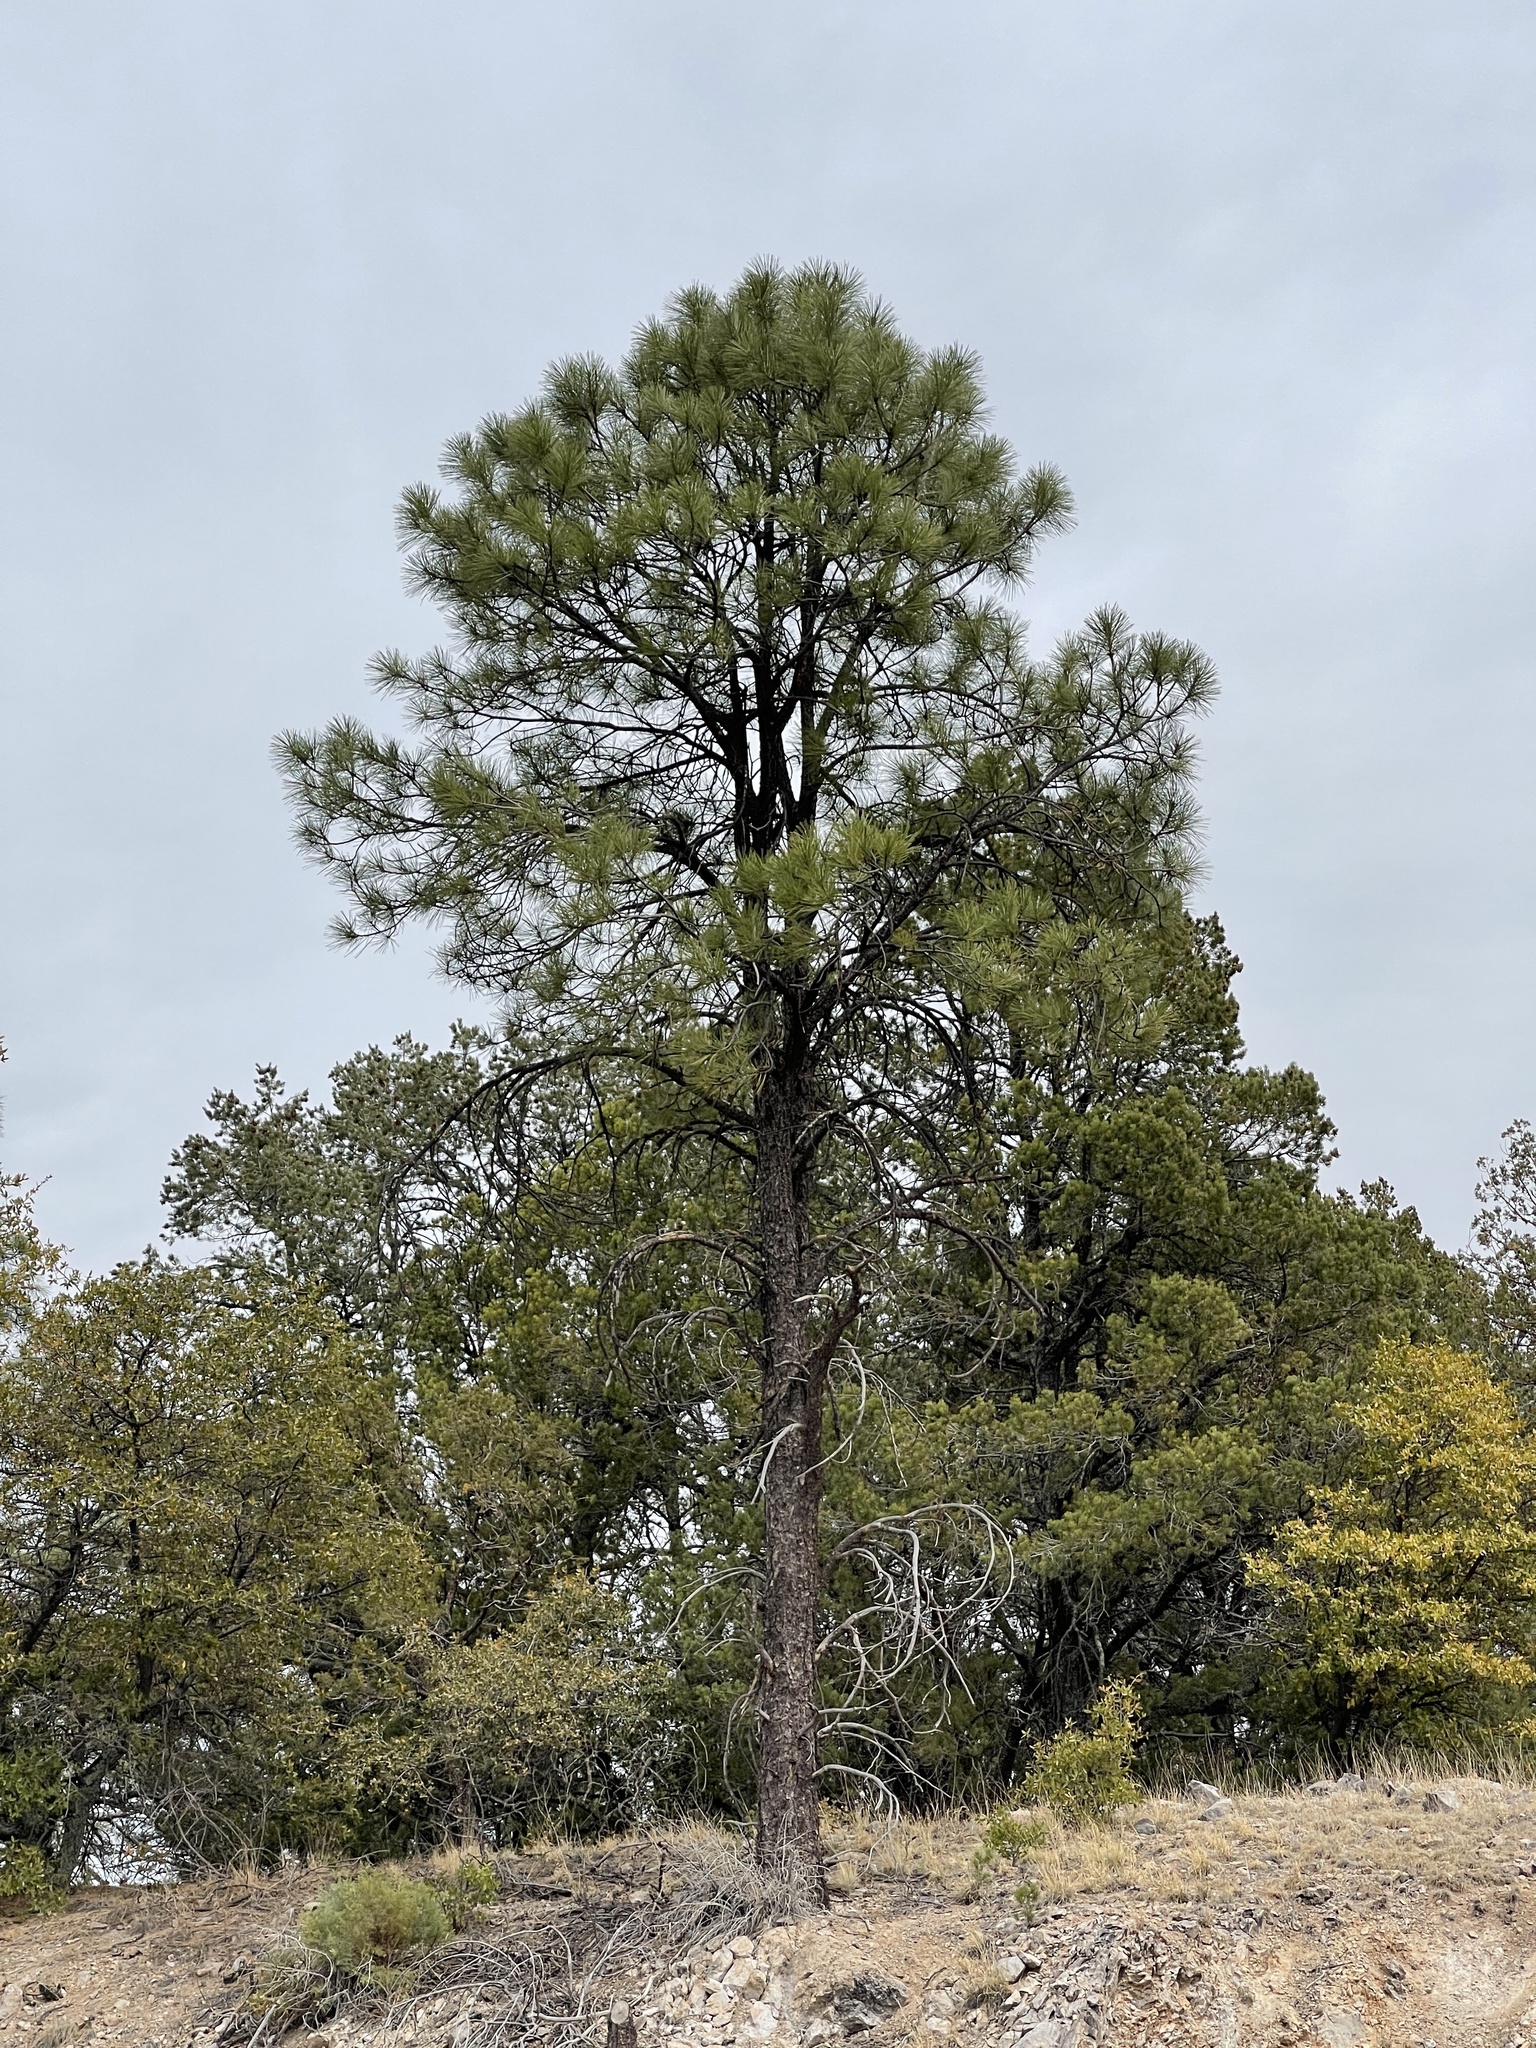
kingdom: Plantae
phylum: Tracheophyta
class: Pinopsida
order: Pinales
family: Pinaceae
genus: Pinus
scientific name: Pinus ponderosa
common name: Western yellow-pine
